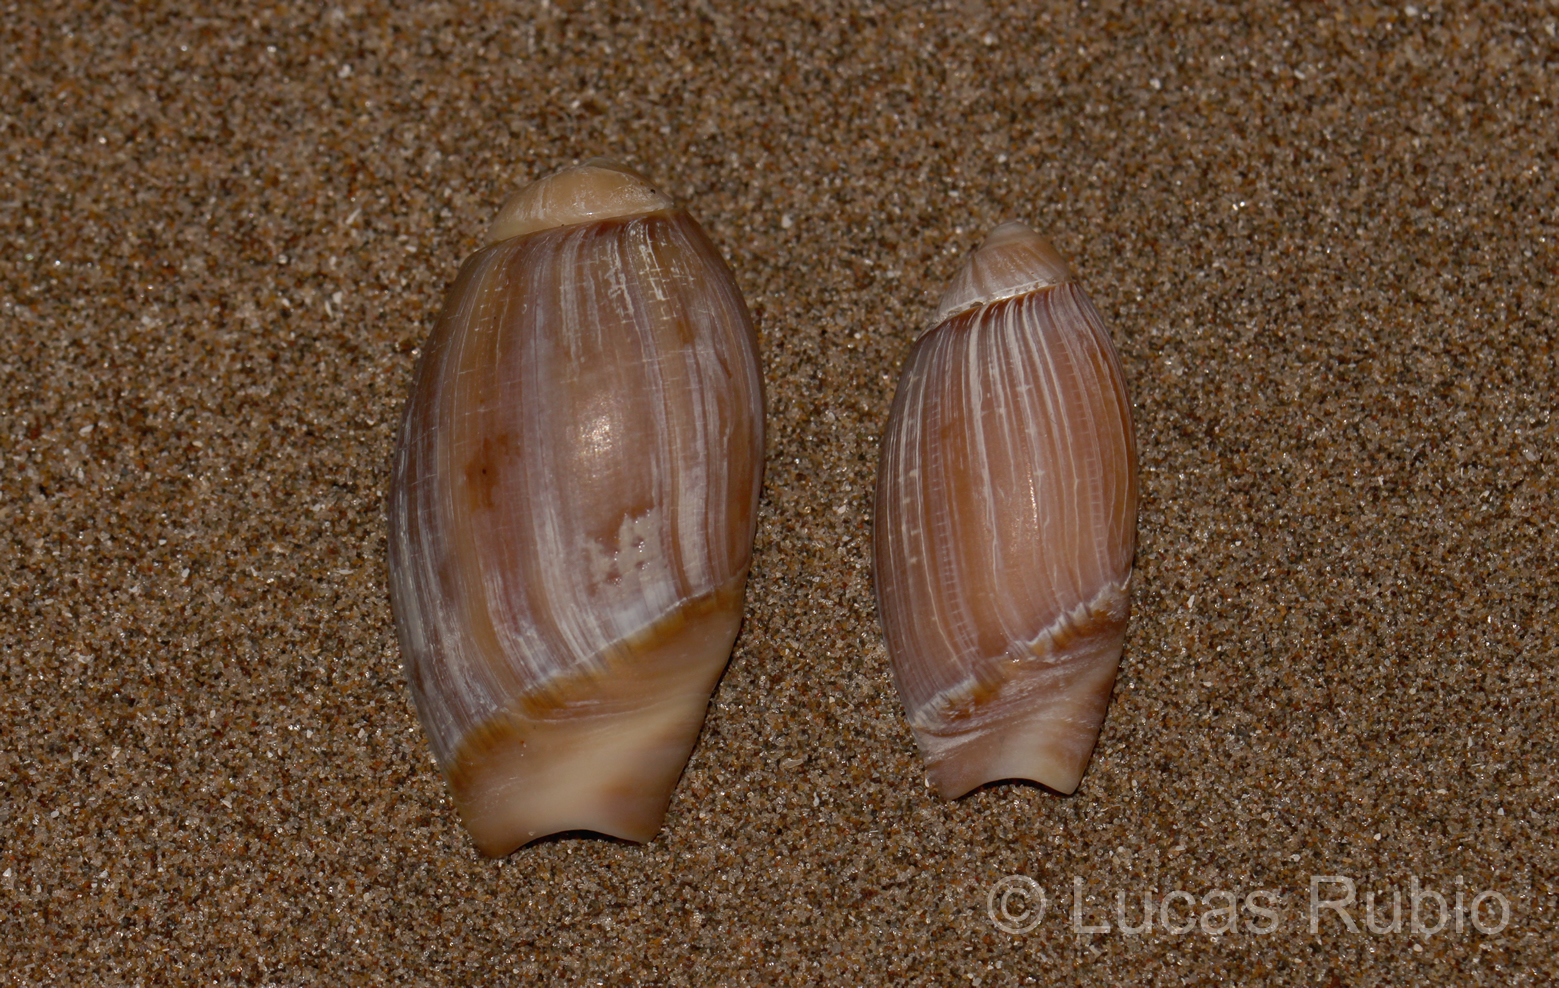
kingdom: Animalia
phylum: Mollusca
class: Gastropoda
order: Neogastropoda
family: Olividae
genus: Olivancillaria
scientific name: Olivancillaria carcellesi
